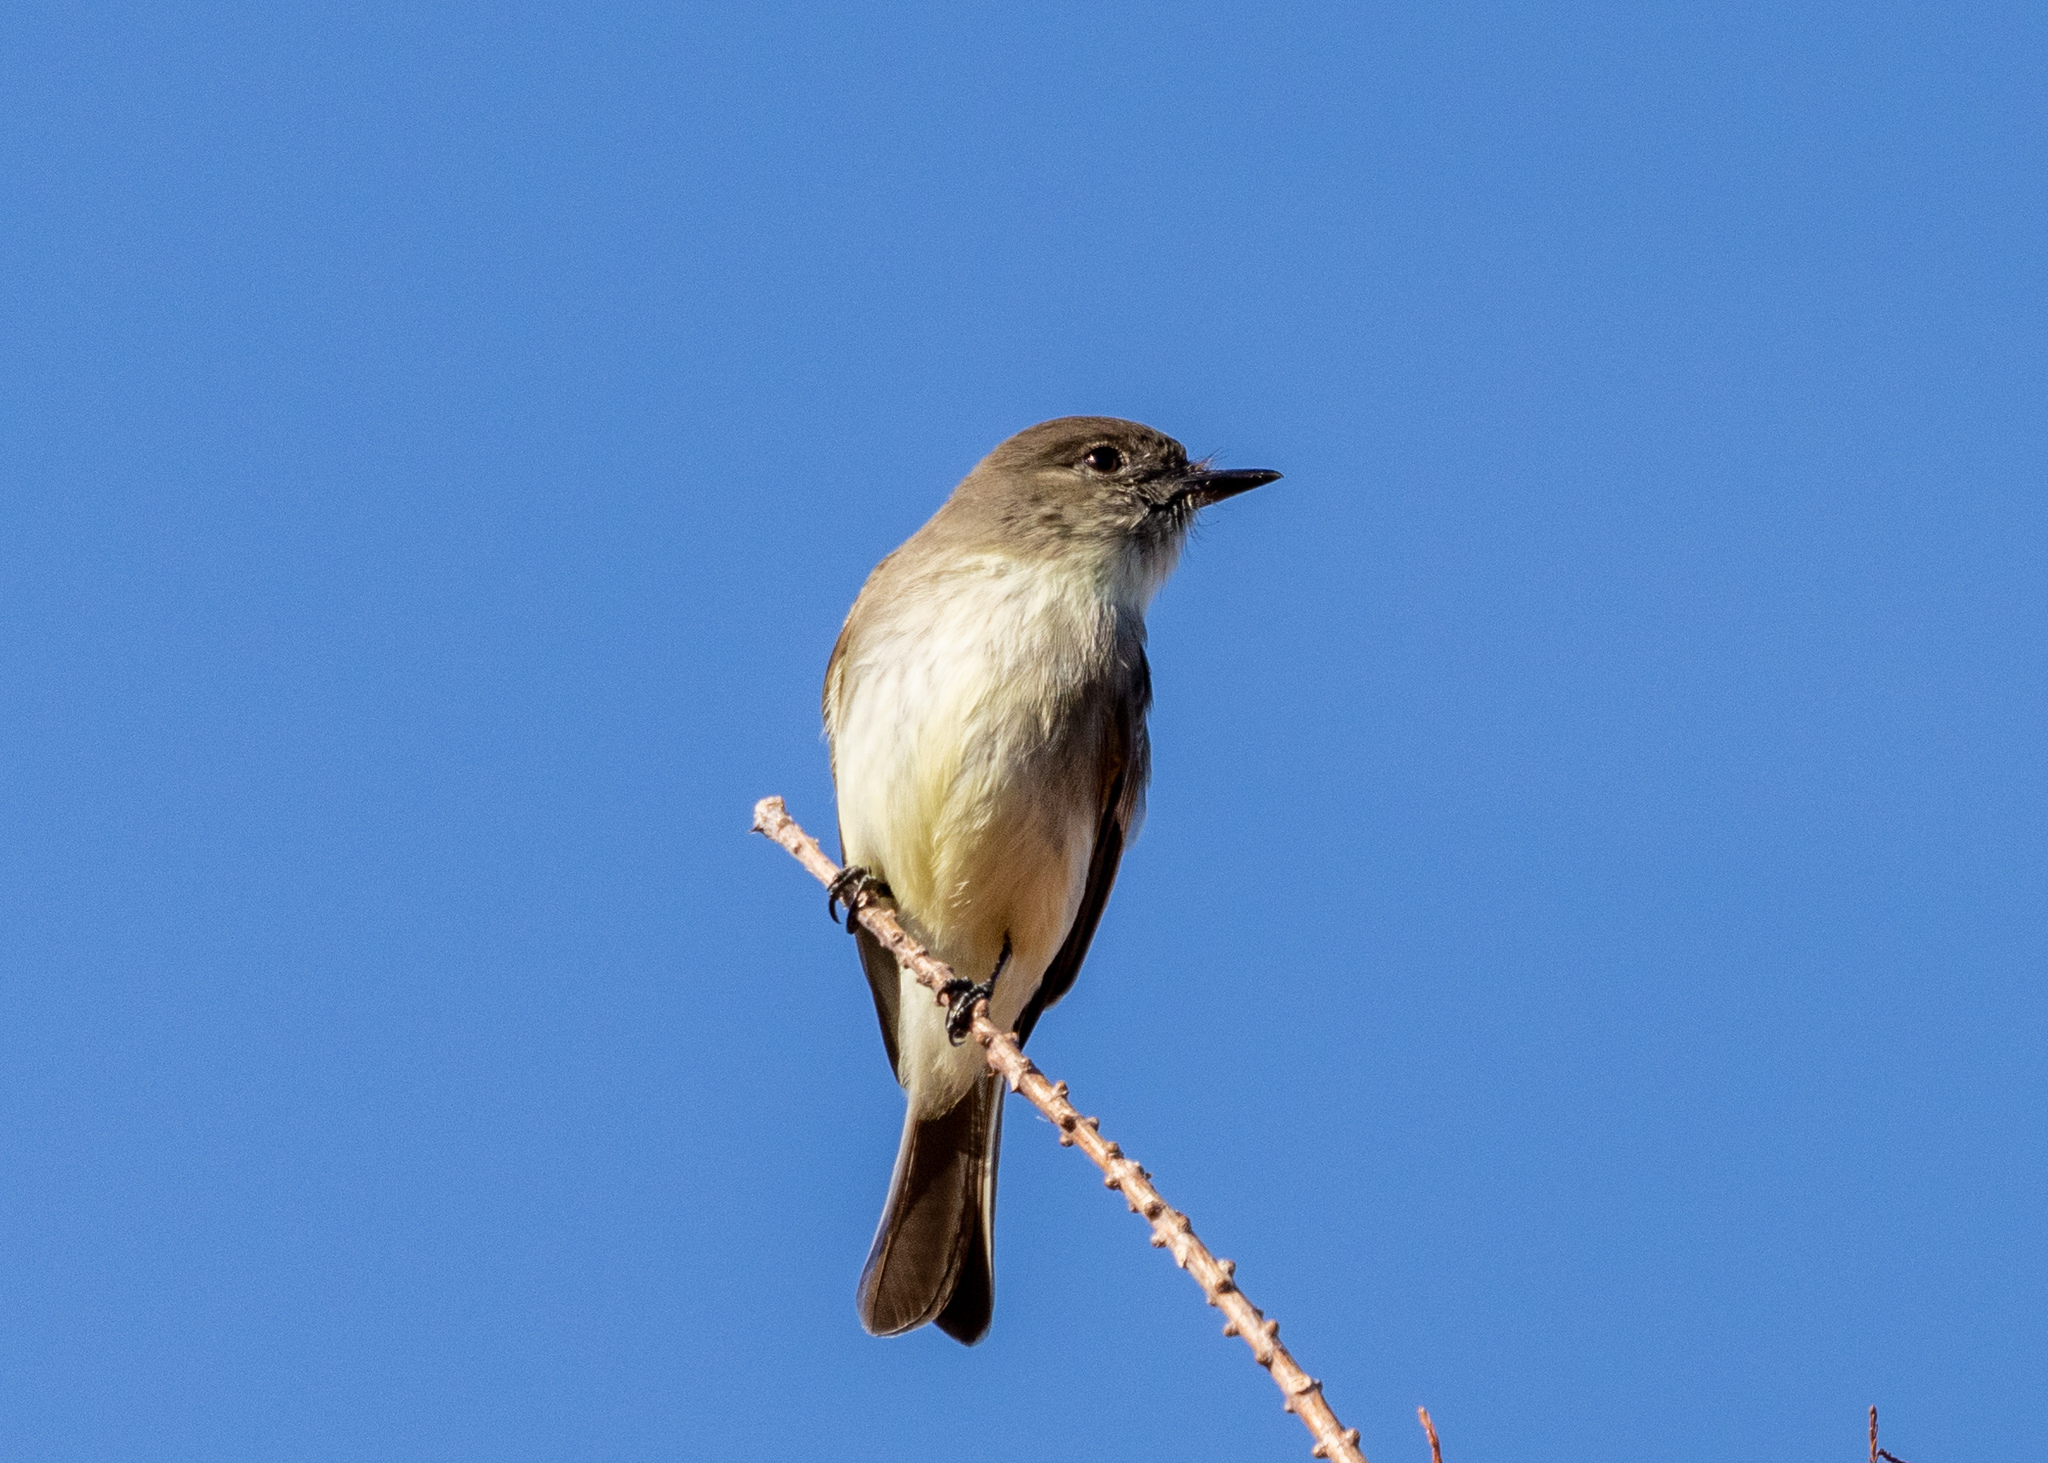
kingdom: Animalia
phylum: Chordata
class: Aves
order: Passeriformes
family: Tyrannidae
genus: Sayornis
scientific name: Sayornis phoebe
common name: Eastern phoebe
